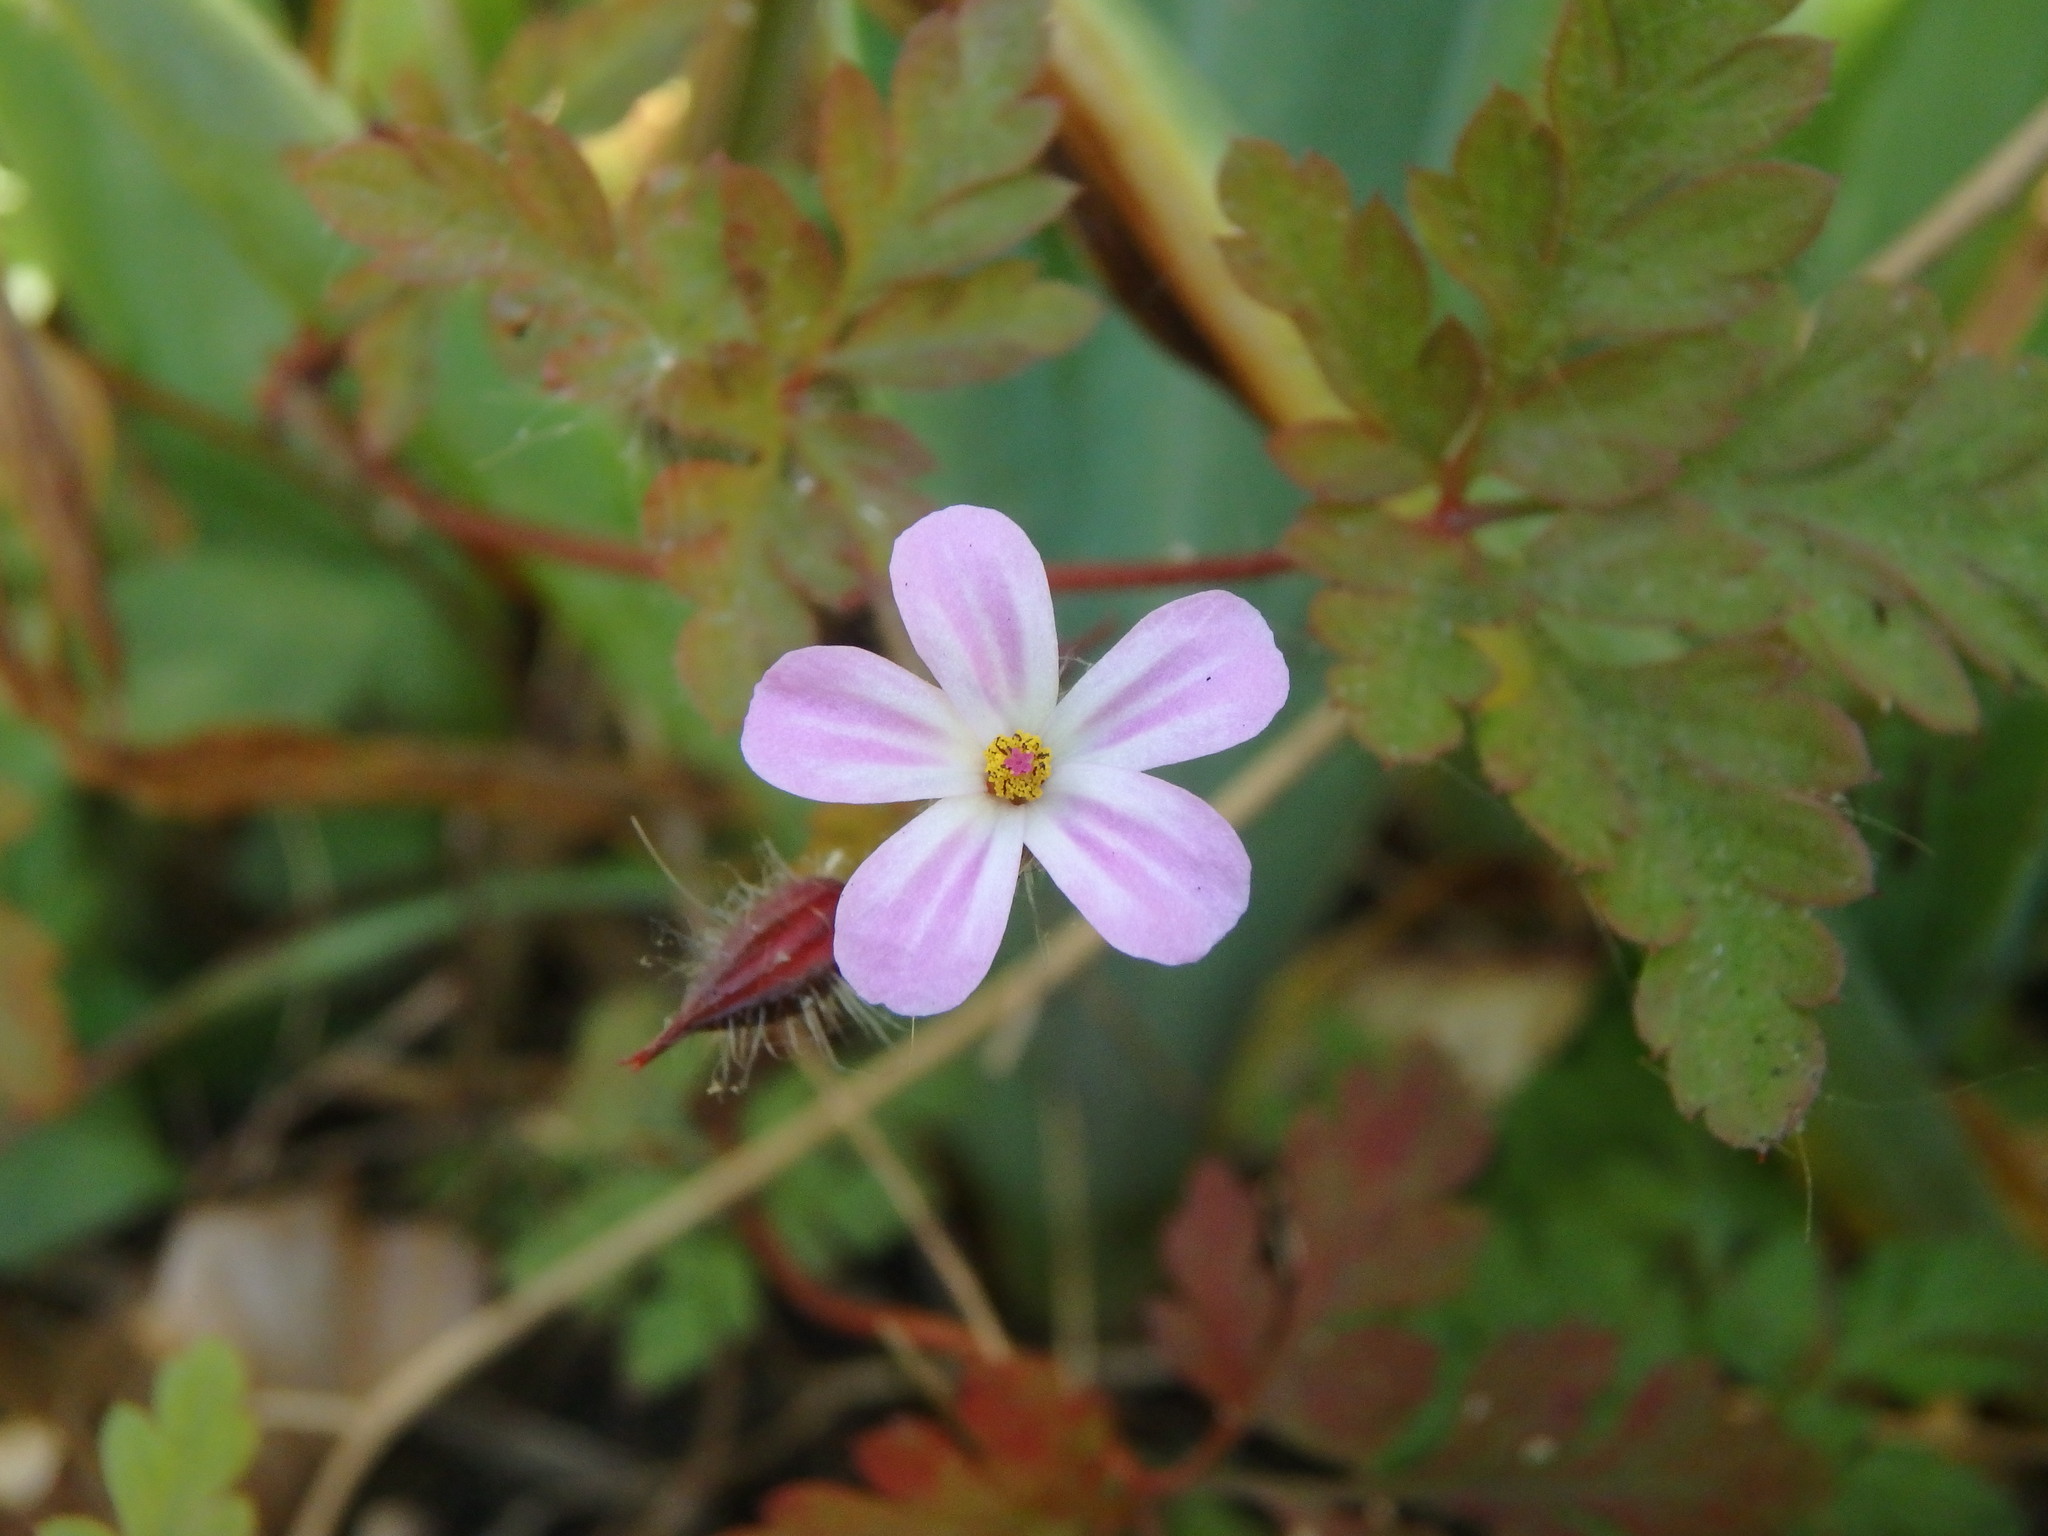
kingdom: Plantae
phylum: Tracheophyta
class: Magnoliopsida
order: Geraniales
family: Geraniaceae
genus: Geranium
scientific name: Geranium robertianum
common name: Herb-robert
